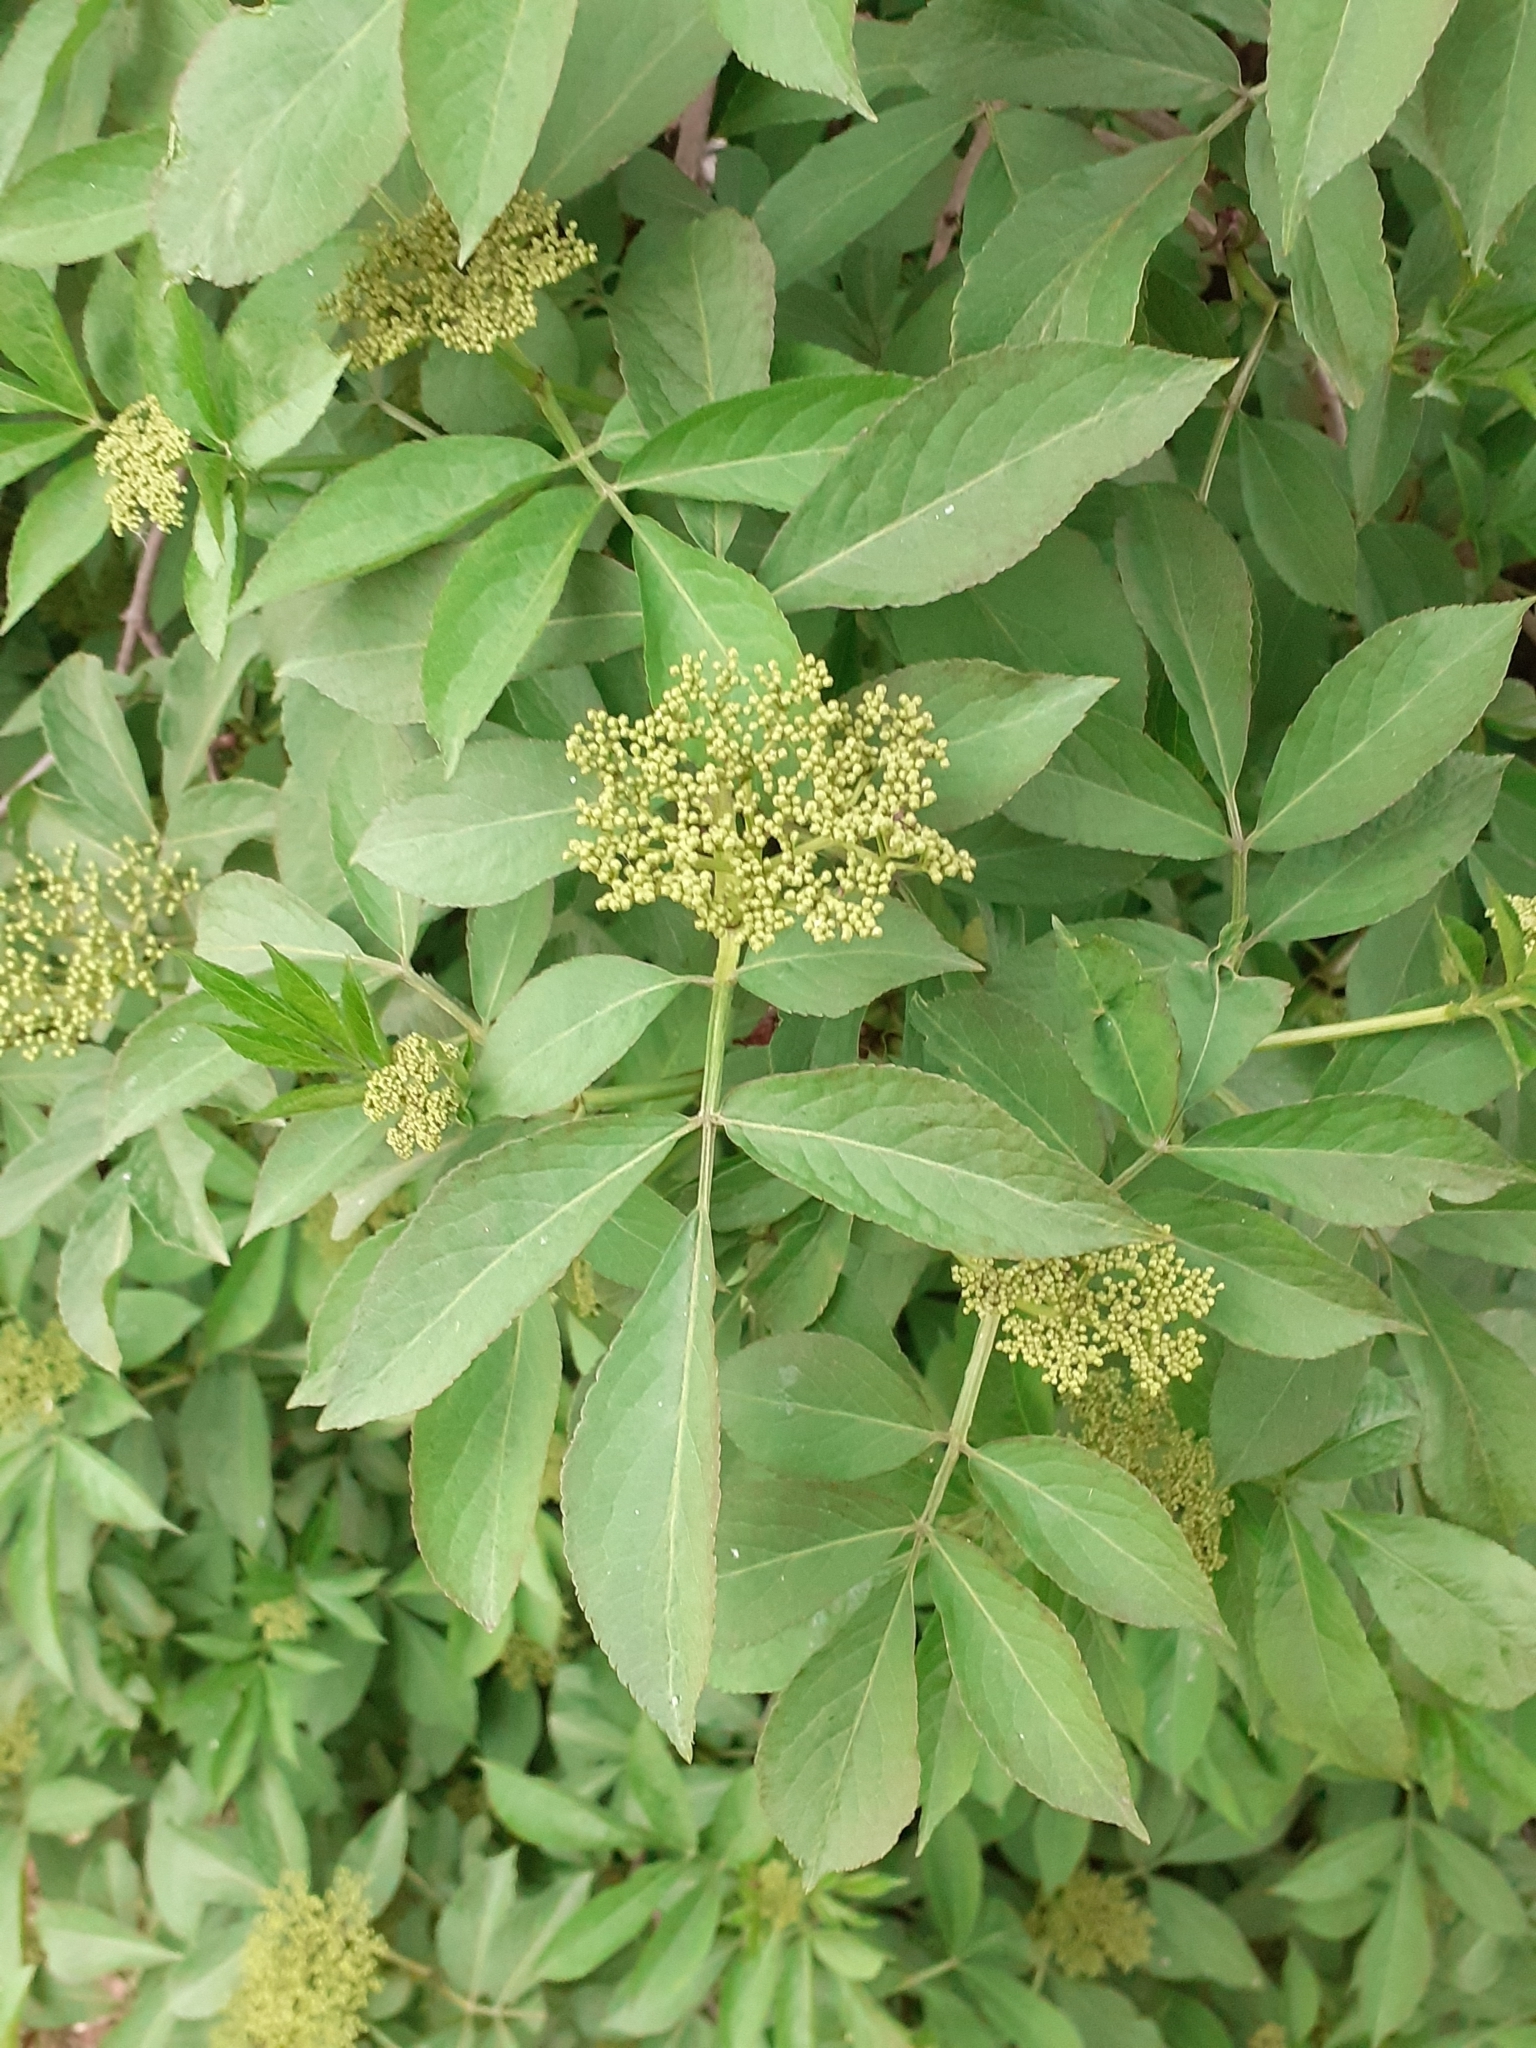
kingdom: Plantae
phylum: Tracheophyta
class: Magnoliopsida
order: Dipsacales
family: Viburnaceae
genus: Sambucus
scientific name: Sambucus nigra
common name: Elder
